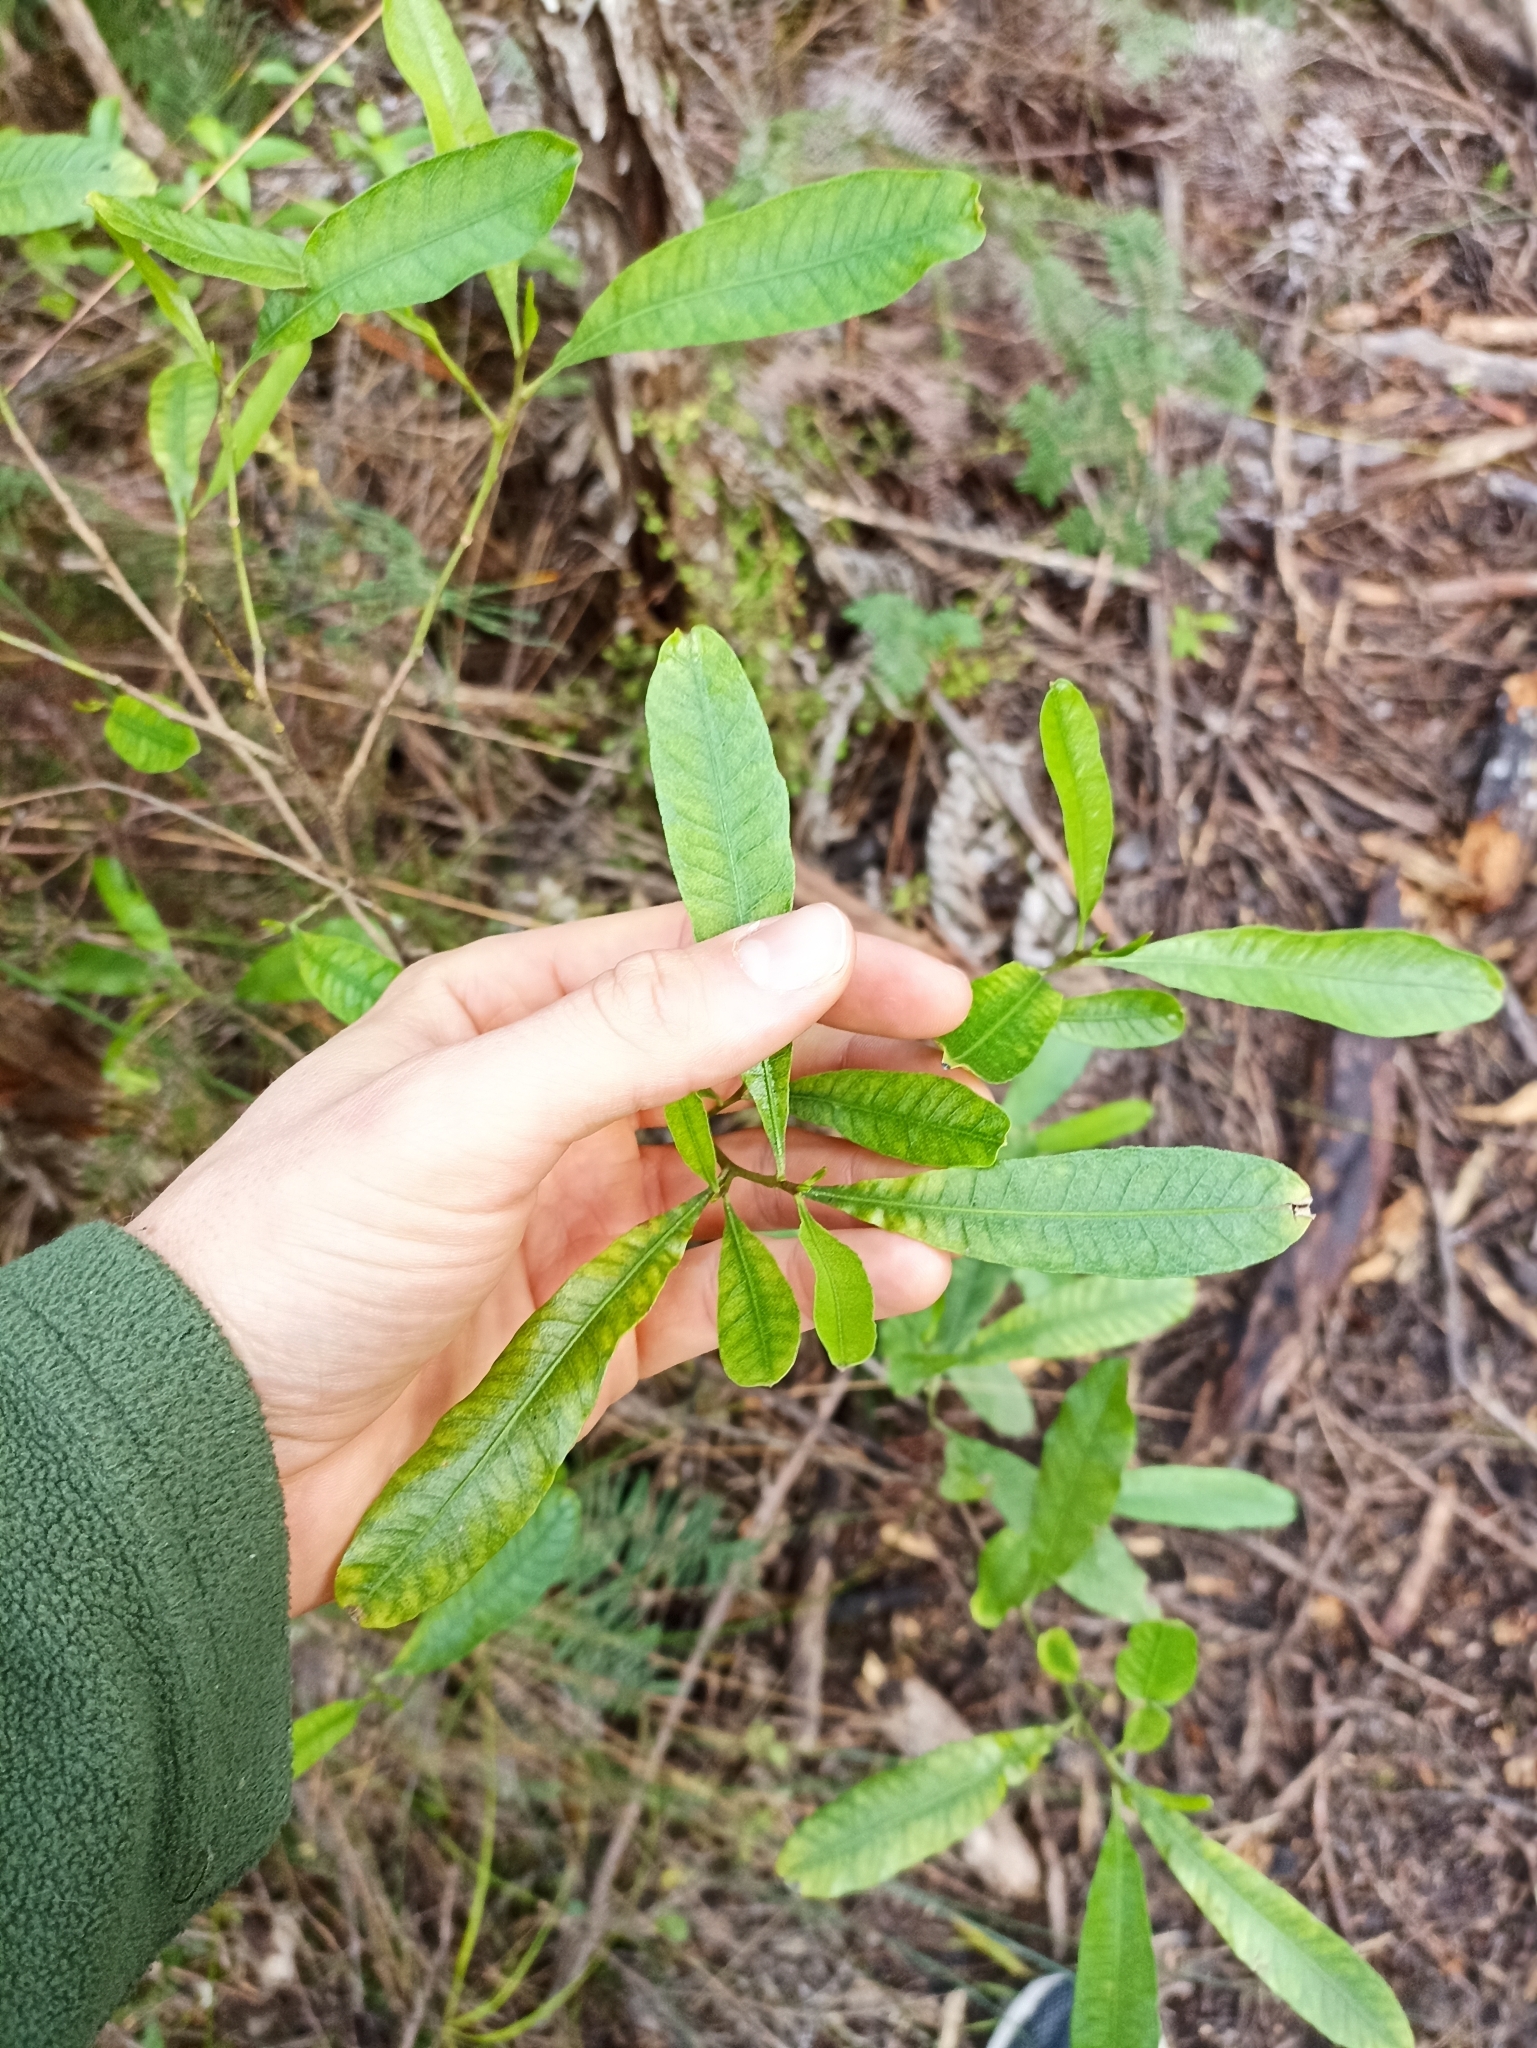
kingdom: Plantae
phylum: Tracheophyta
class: Magnoliopsida
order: Sapindales
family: Sapindaceae
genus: Dodonaea
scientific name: Dodonaea viscosa
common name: Hopbush
